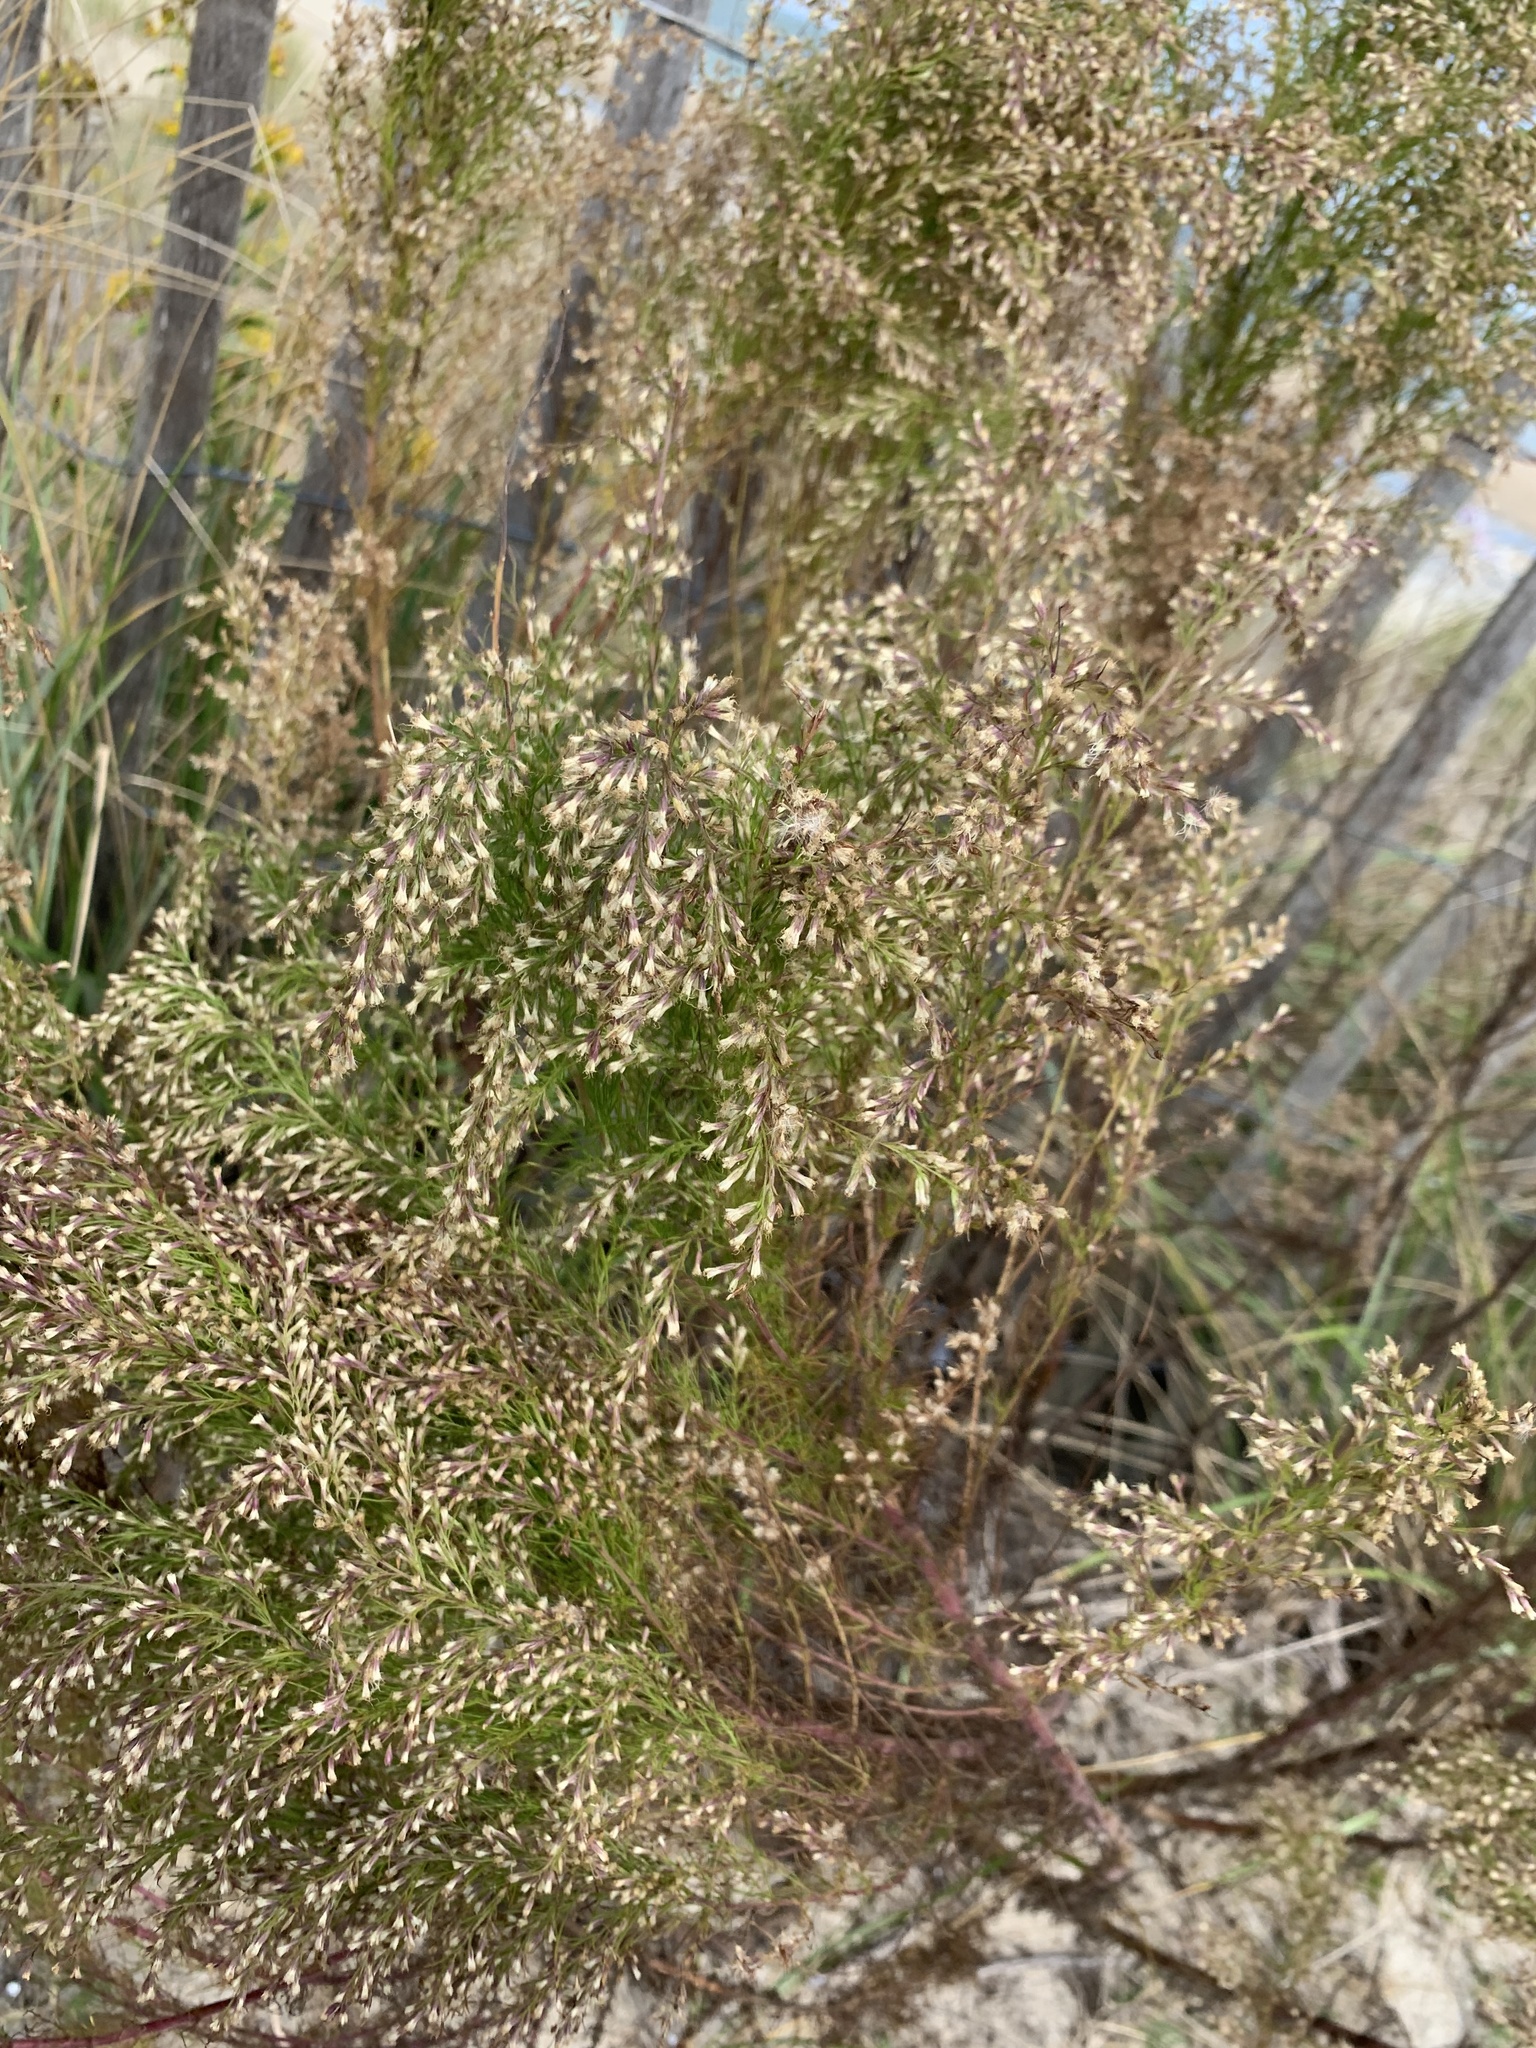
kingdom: Plantae
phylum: Tracheophyta
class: Magnoliopsida
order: Asterales
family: Asteraceae
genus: Eupatorium
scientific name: Eupatorium capillifolium
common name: Dog-fennel
